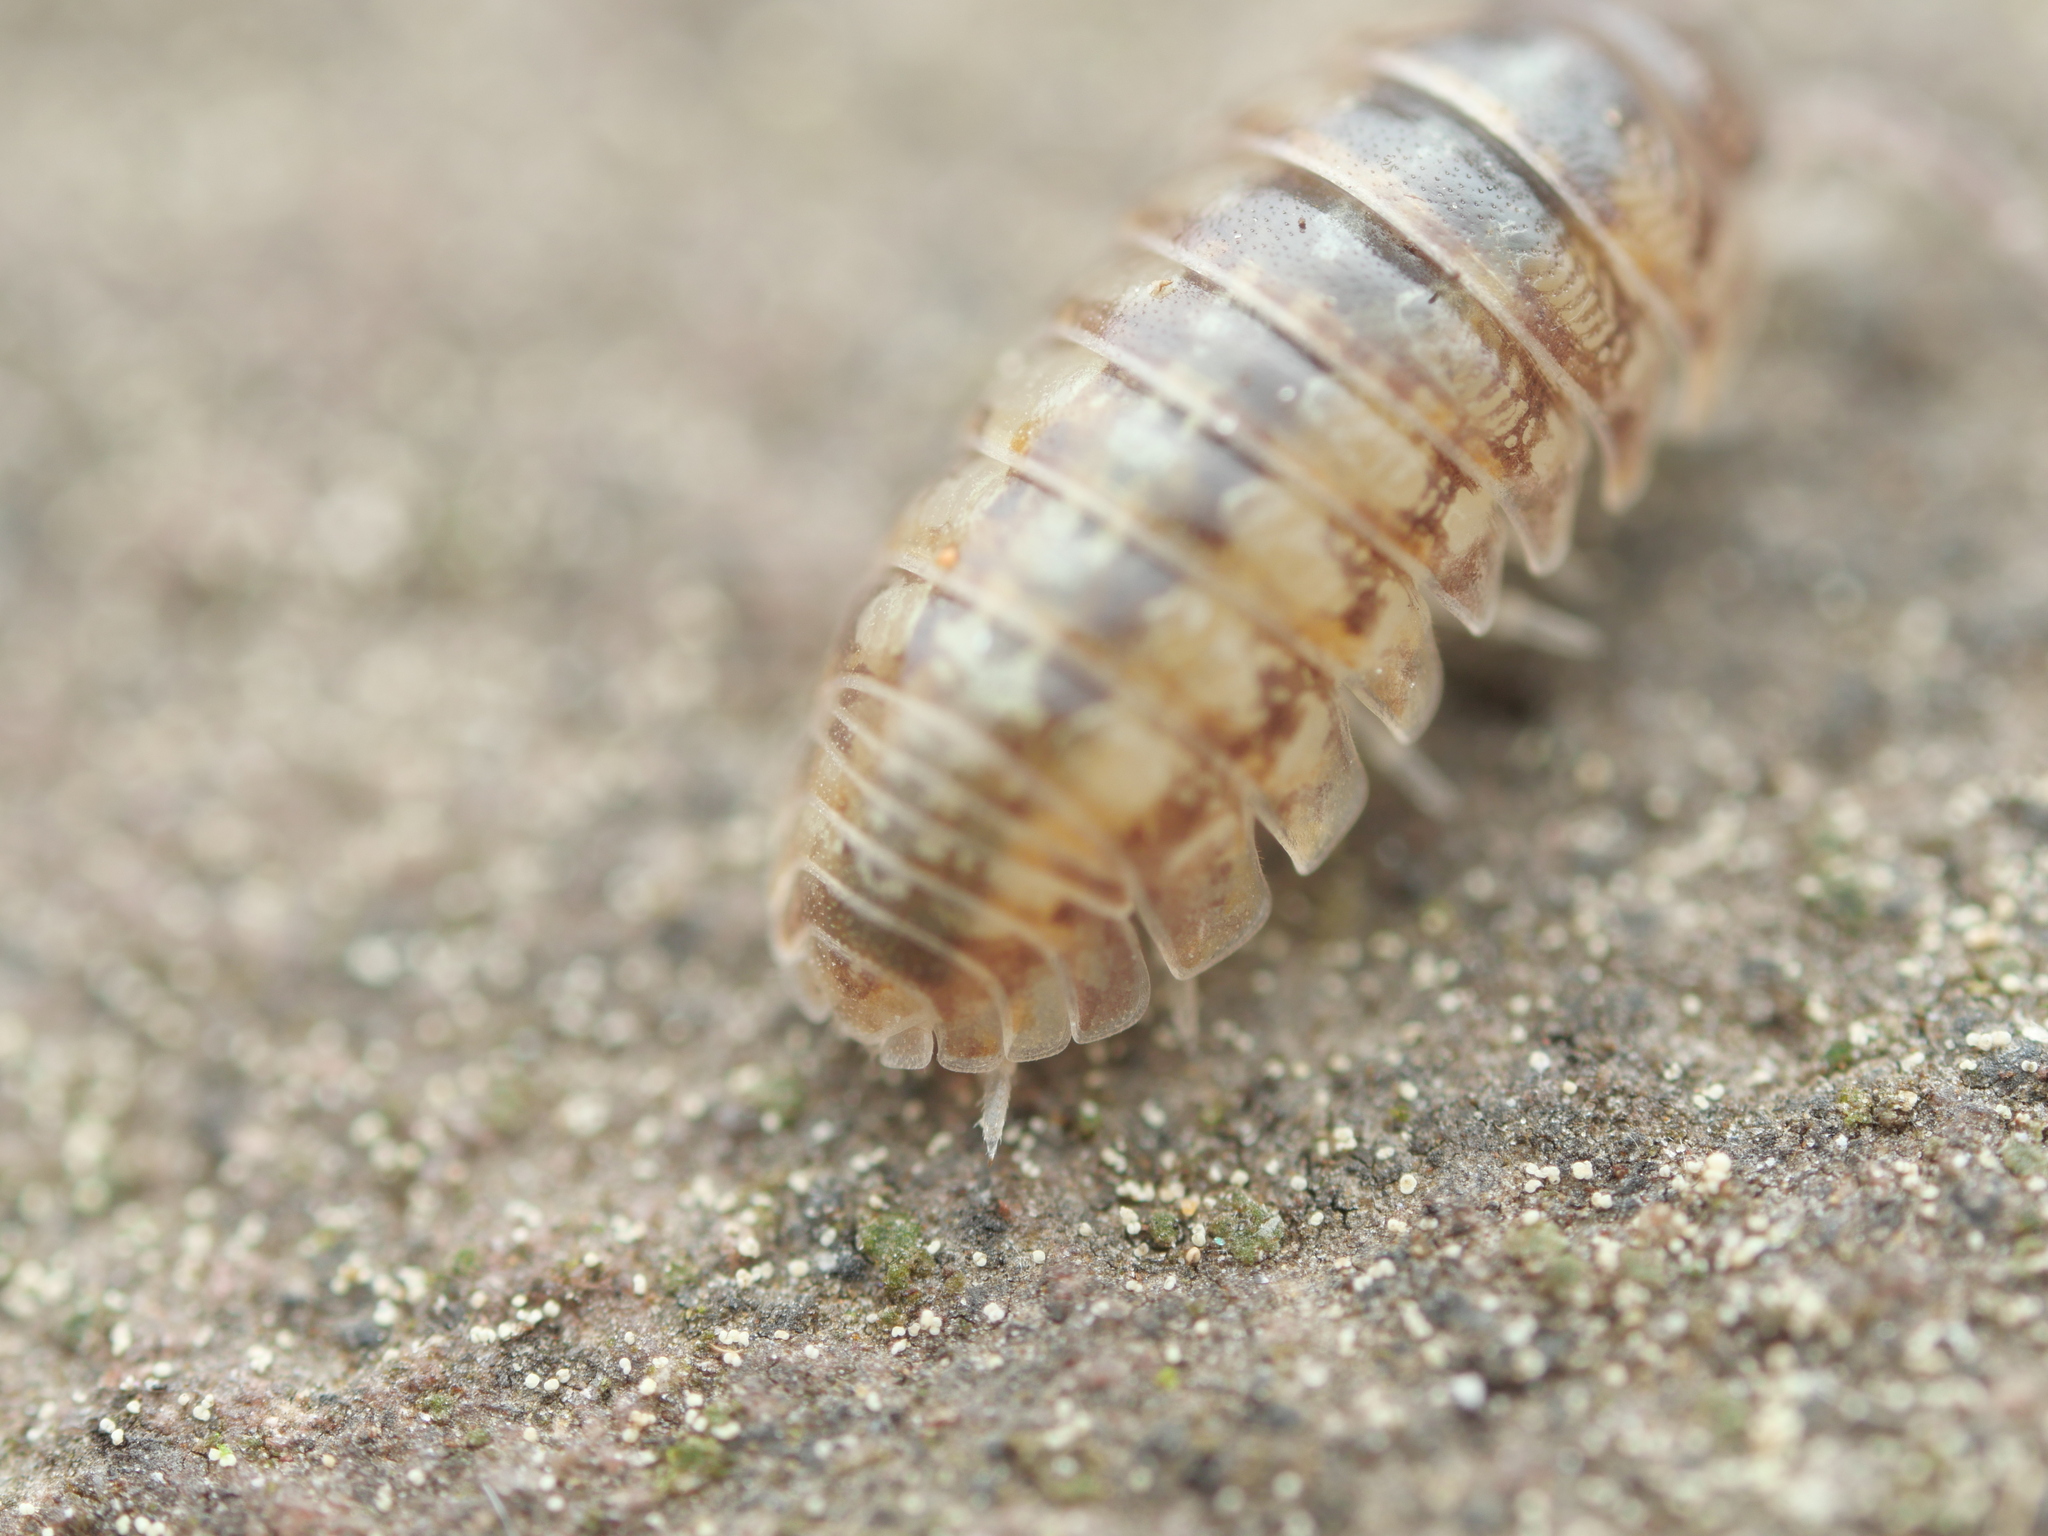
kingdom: Animalia
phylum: Arthropoda
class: Malacostraca
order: Isopoda
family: Armadillidiidae
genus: Armadillidium
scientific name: Armadillidium vulgare
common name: Common pill woodlouse
